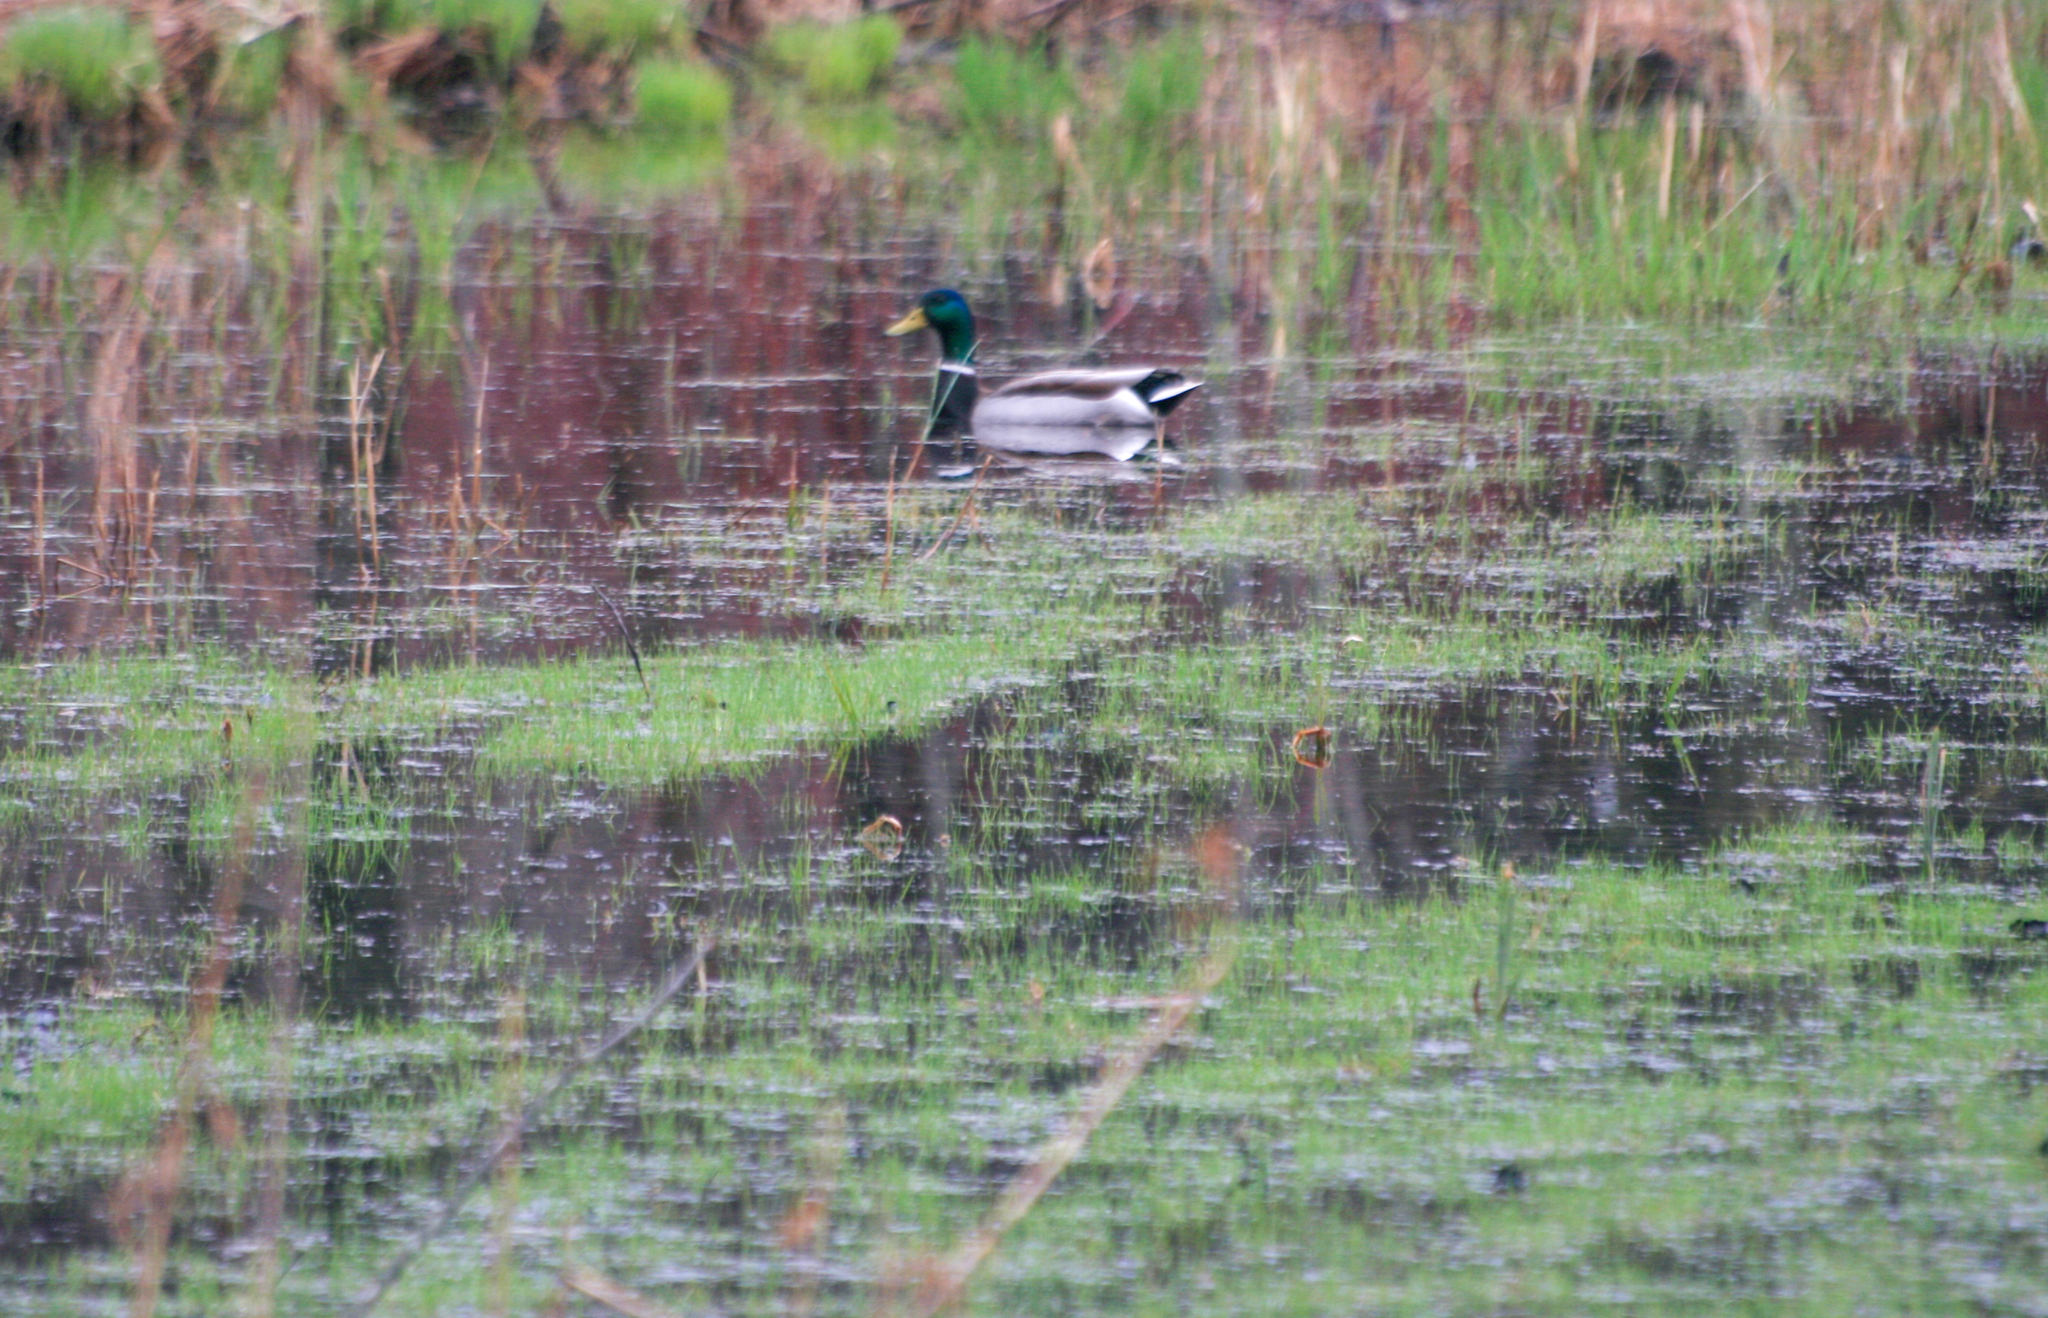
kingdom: Animalia
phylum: Chordata
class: Aves
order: Anseriformes
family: Anatidae
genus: Anas
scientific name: Anas platyrhynchos
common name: Mallard
